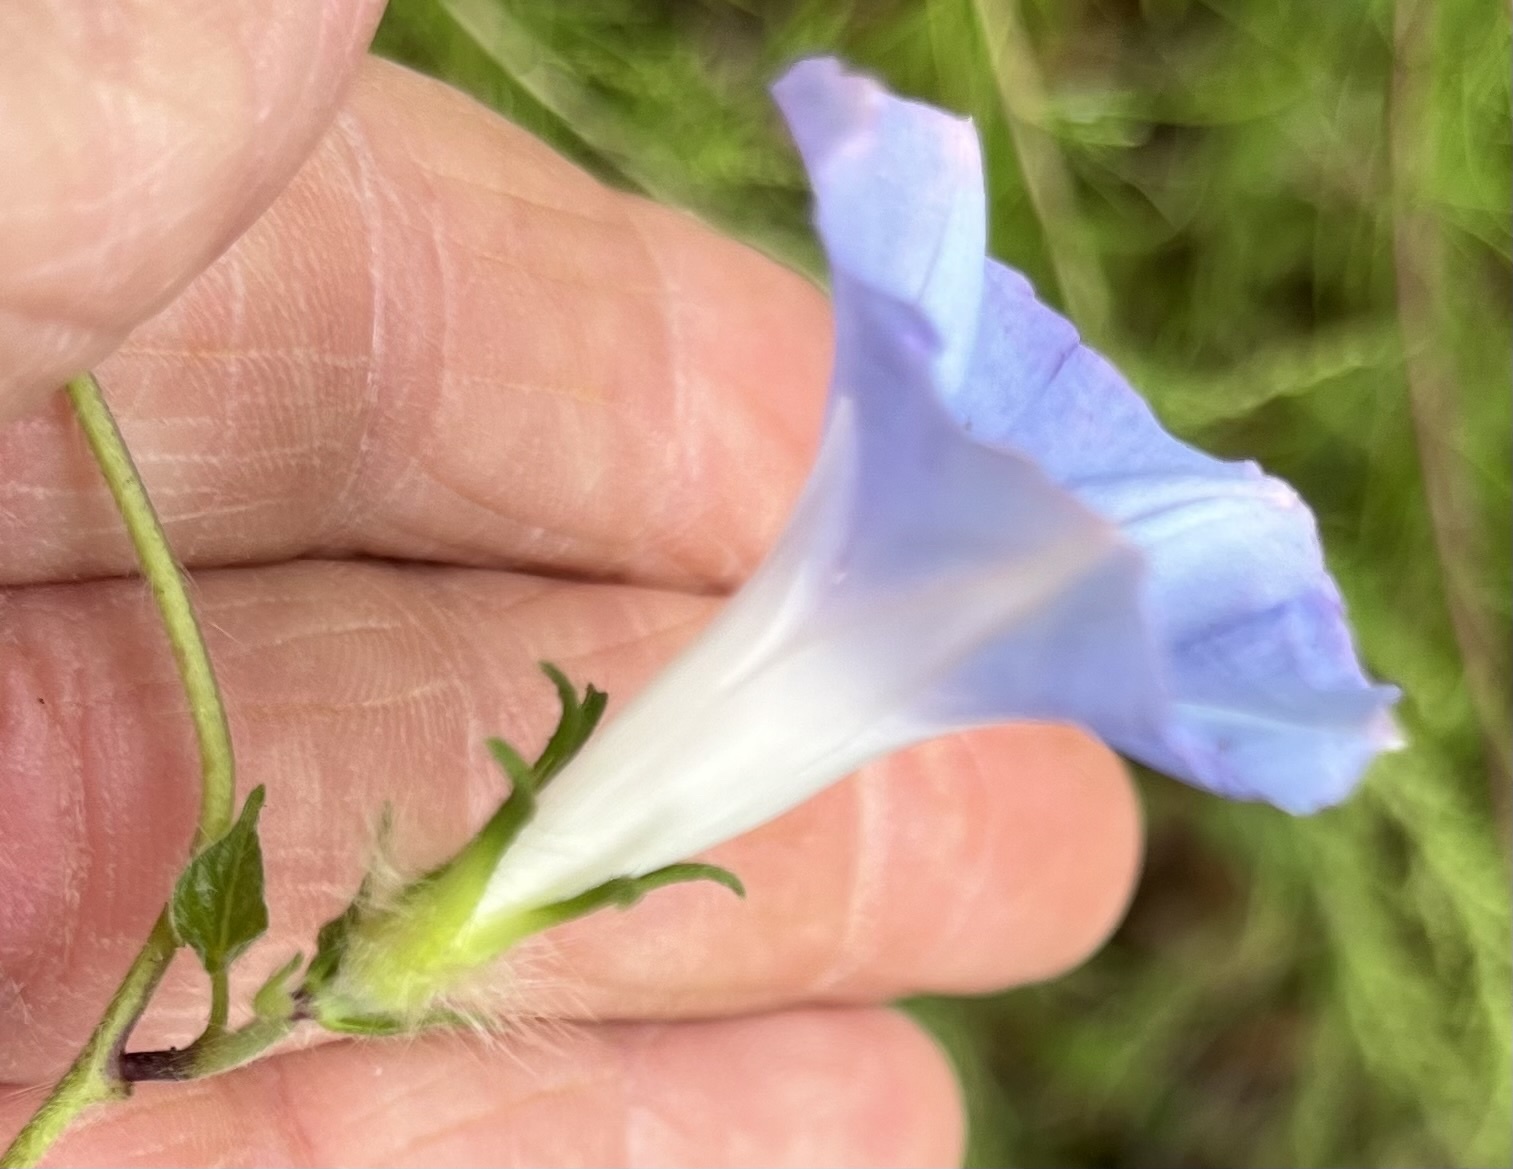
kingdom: Plantae
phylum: Tracheophyta
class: Magnoliopsida
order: Solanales
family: Convolvulaceae
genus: Ipomoea
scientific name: Ipomoea hederacea
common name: Ivy-leaved morning-glory
